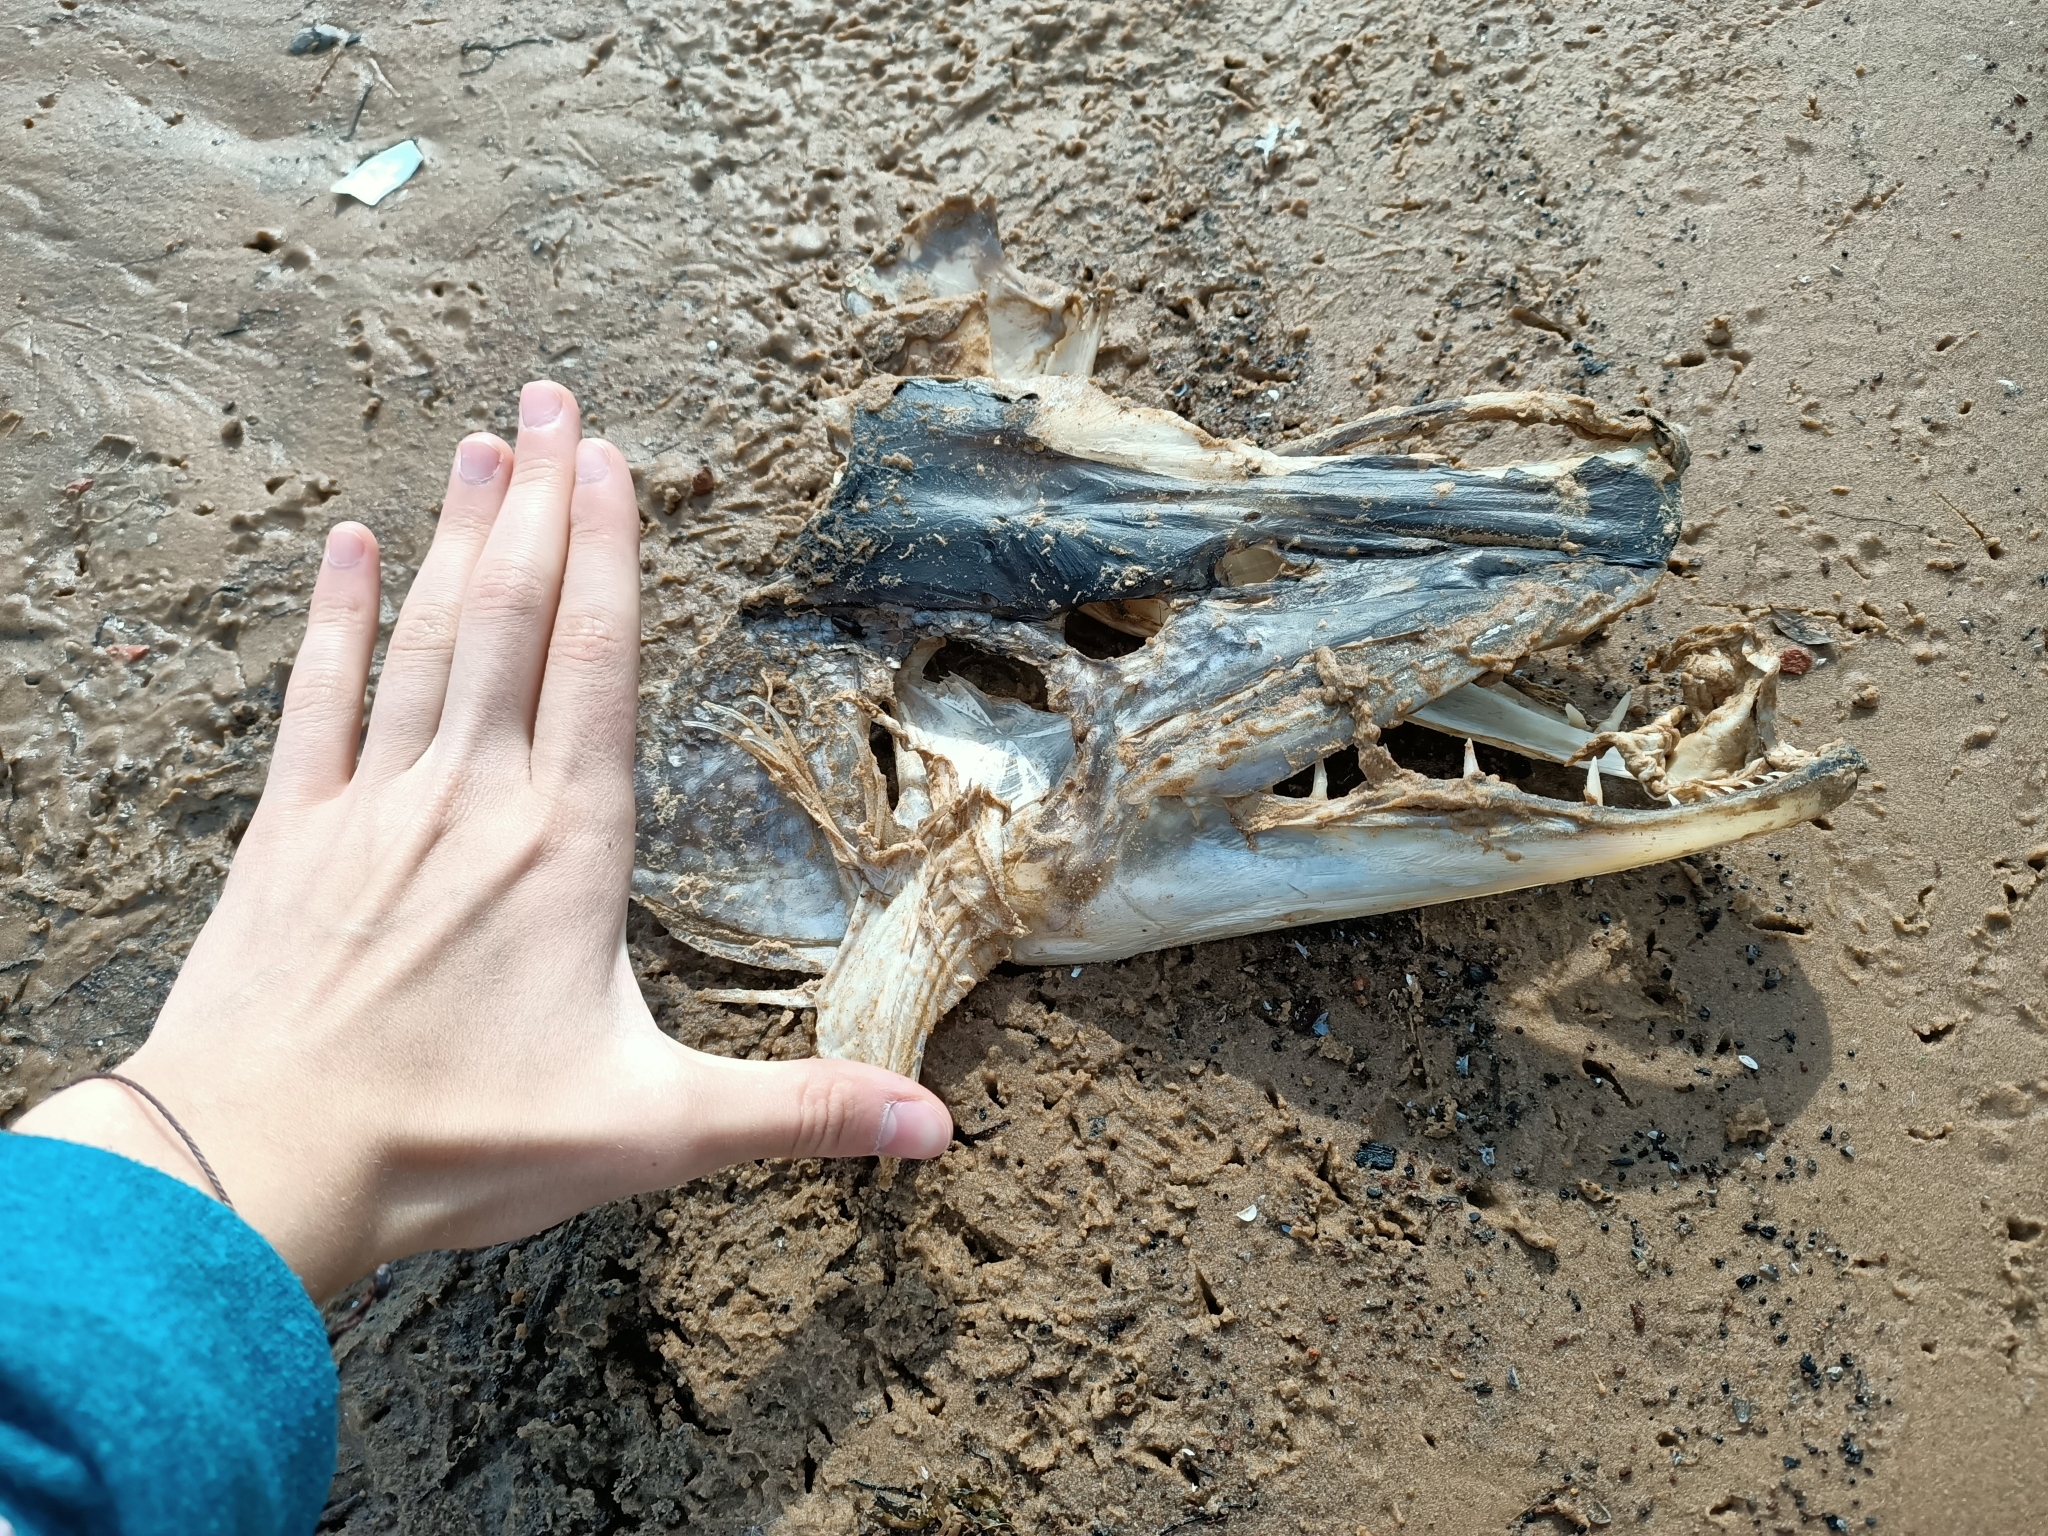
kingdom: Animalia
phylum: Chordata
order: Esociformes
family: Esocidae
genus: Esox
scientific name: Esox lucius
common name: Northern pike
